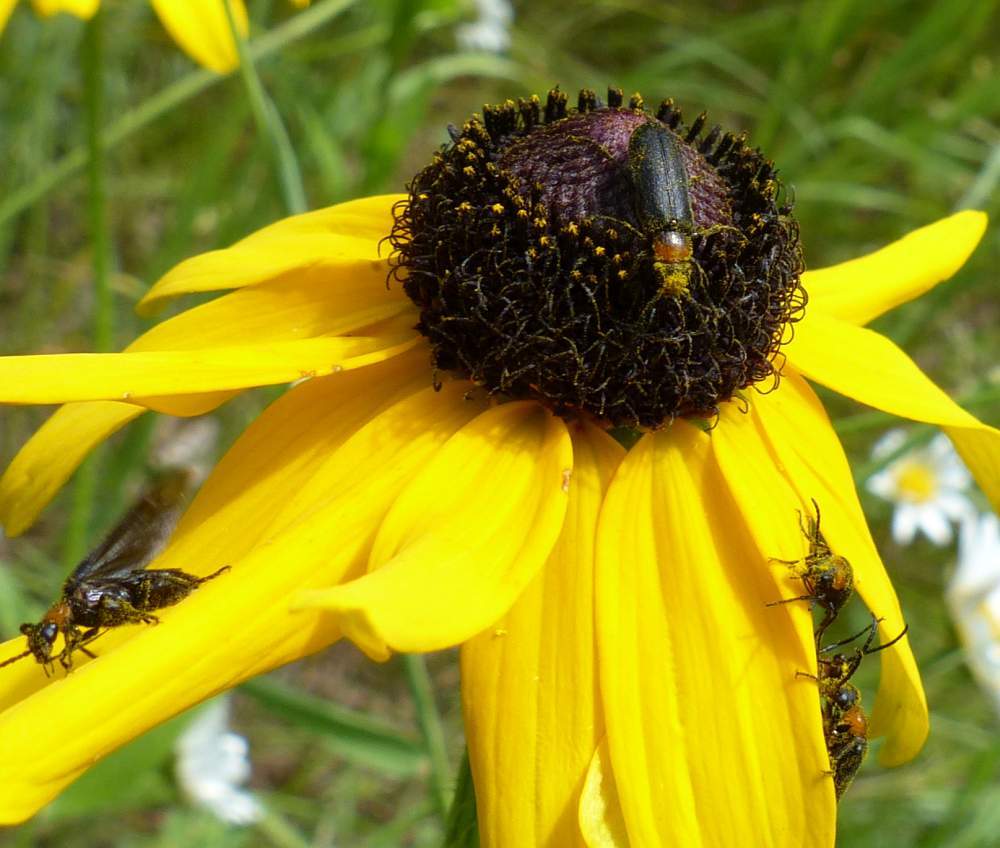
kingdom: Animalia
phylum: Arthropoda
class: Insecta
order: Coleoptera
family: Meloidae
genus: Nemognatha
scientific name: Nemognatha nemorensis
